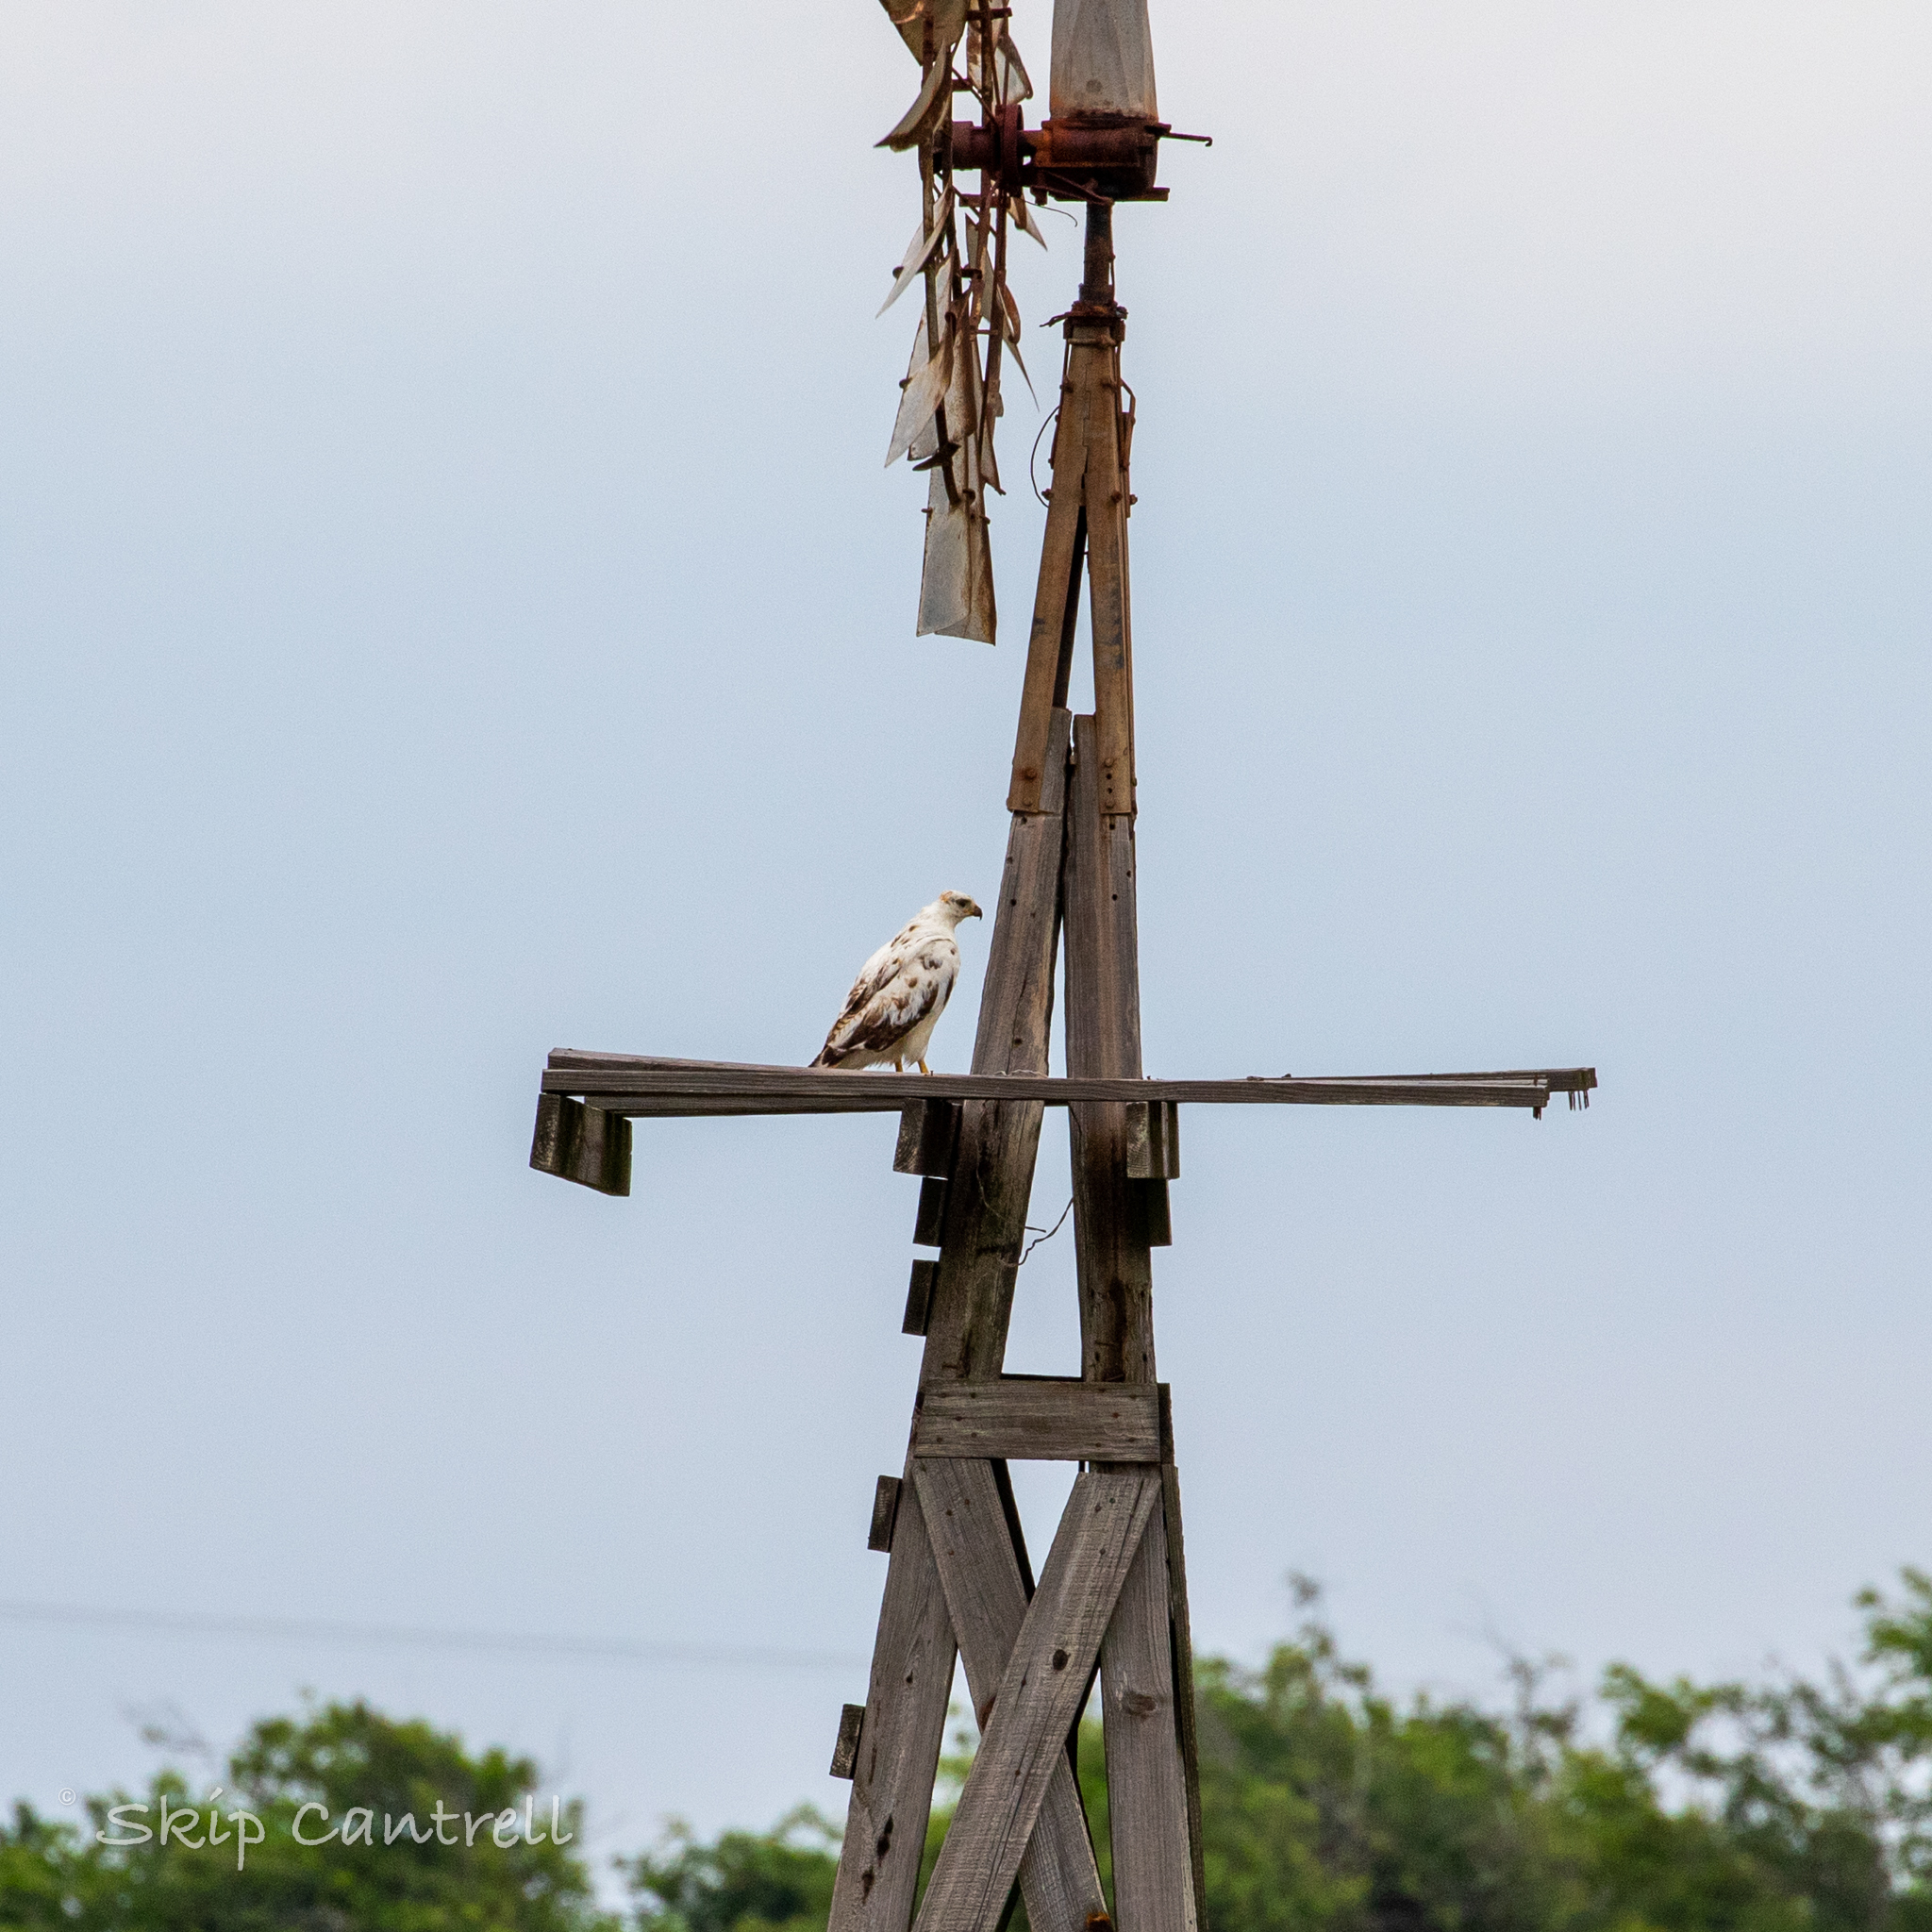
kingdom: Animalia
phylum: Chordata
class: Aves
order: Accipitriformes
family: Accipitridae
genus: Buteo
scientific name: Buteo jamaicensis
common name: Red-tailed hawk
